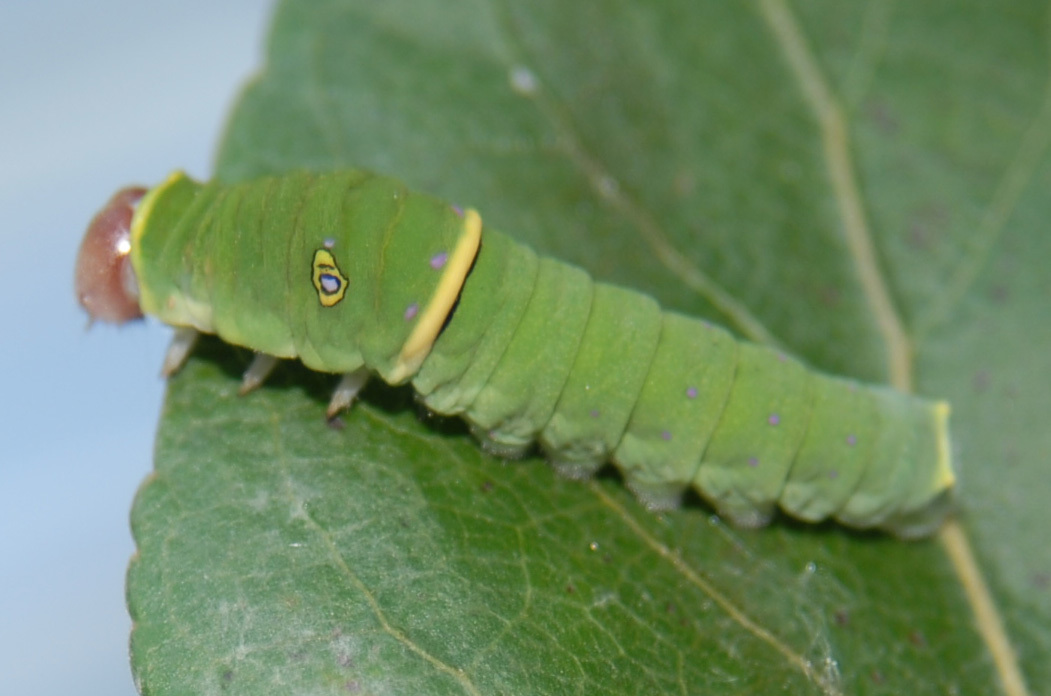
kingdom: Animalia
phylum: Arthropoda
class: Insecta
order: Lepidoptera
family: Papilionidae
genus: Papilio
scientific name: Papilio canadensis
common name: Canadian tiger swallowtail
